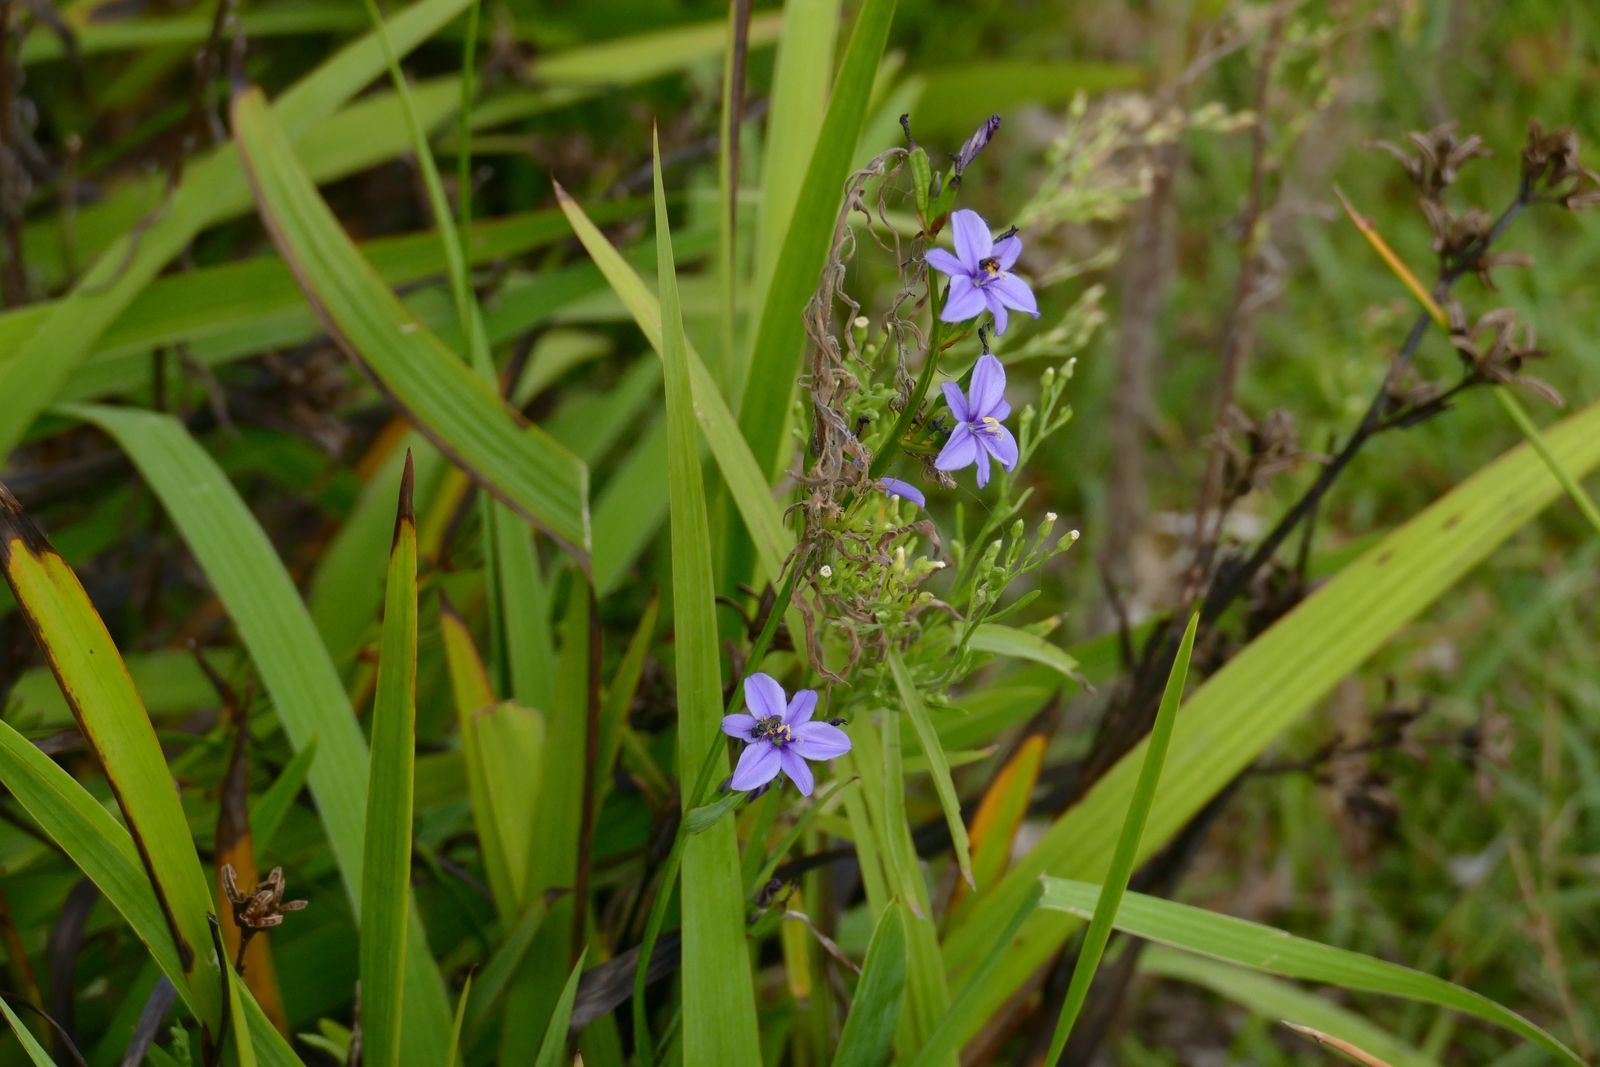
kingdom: Plantae
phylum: Tracheophyta
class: Liliopsida
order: Asparagales
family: Iridaceae
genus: Aristea
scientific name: Aristea ecklonii
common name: Blue corn-lily
